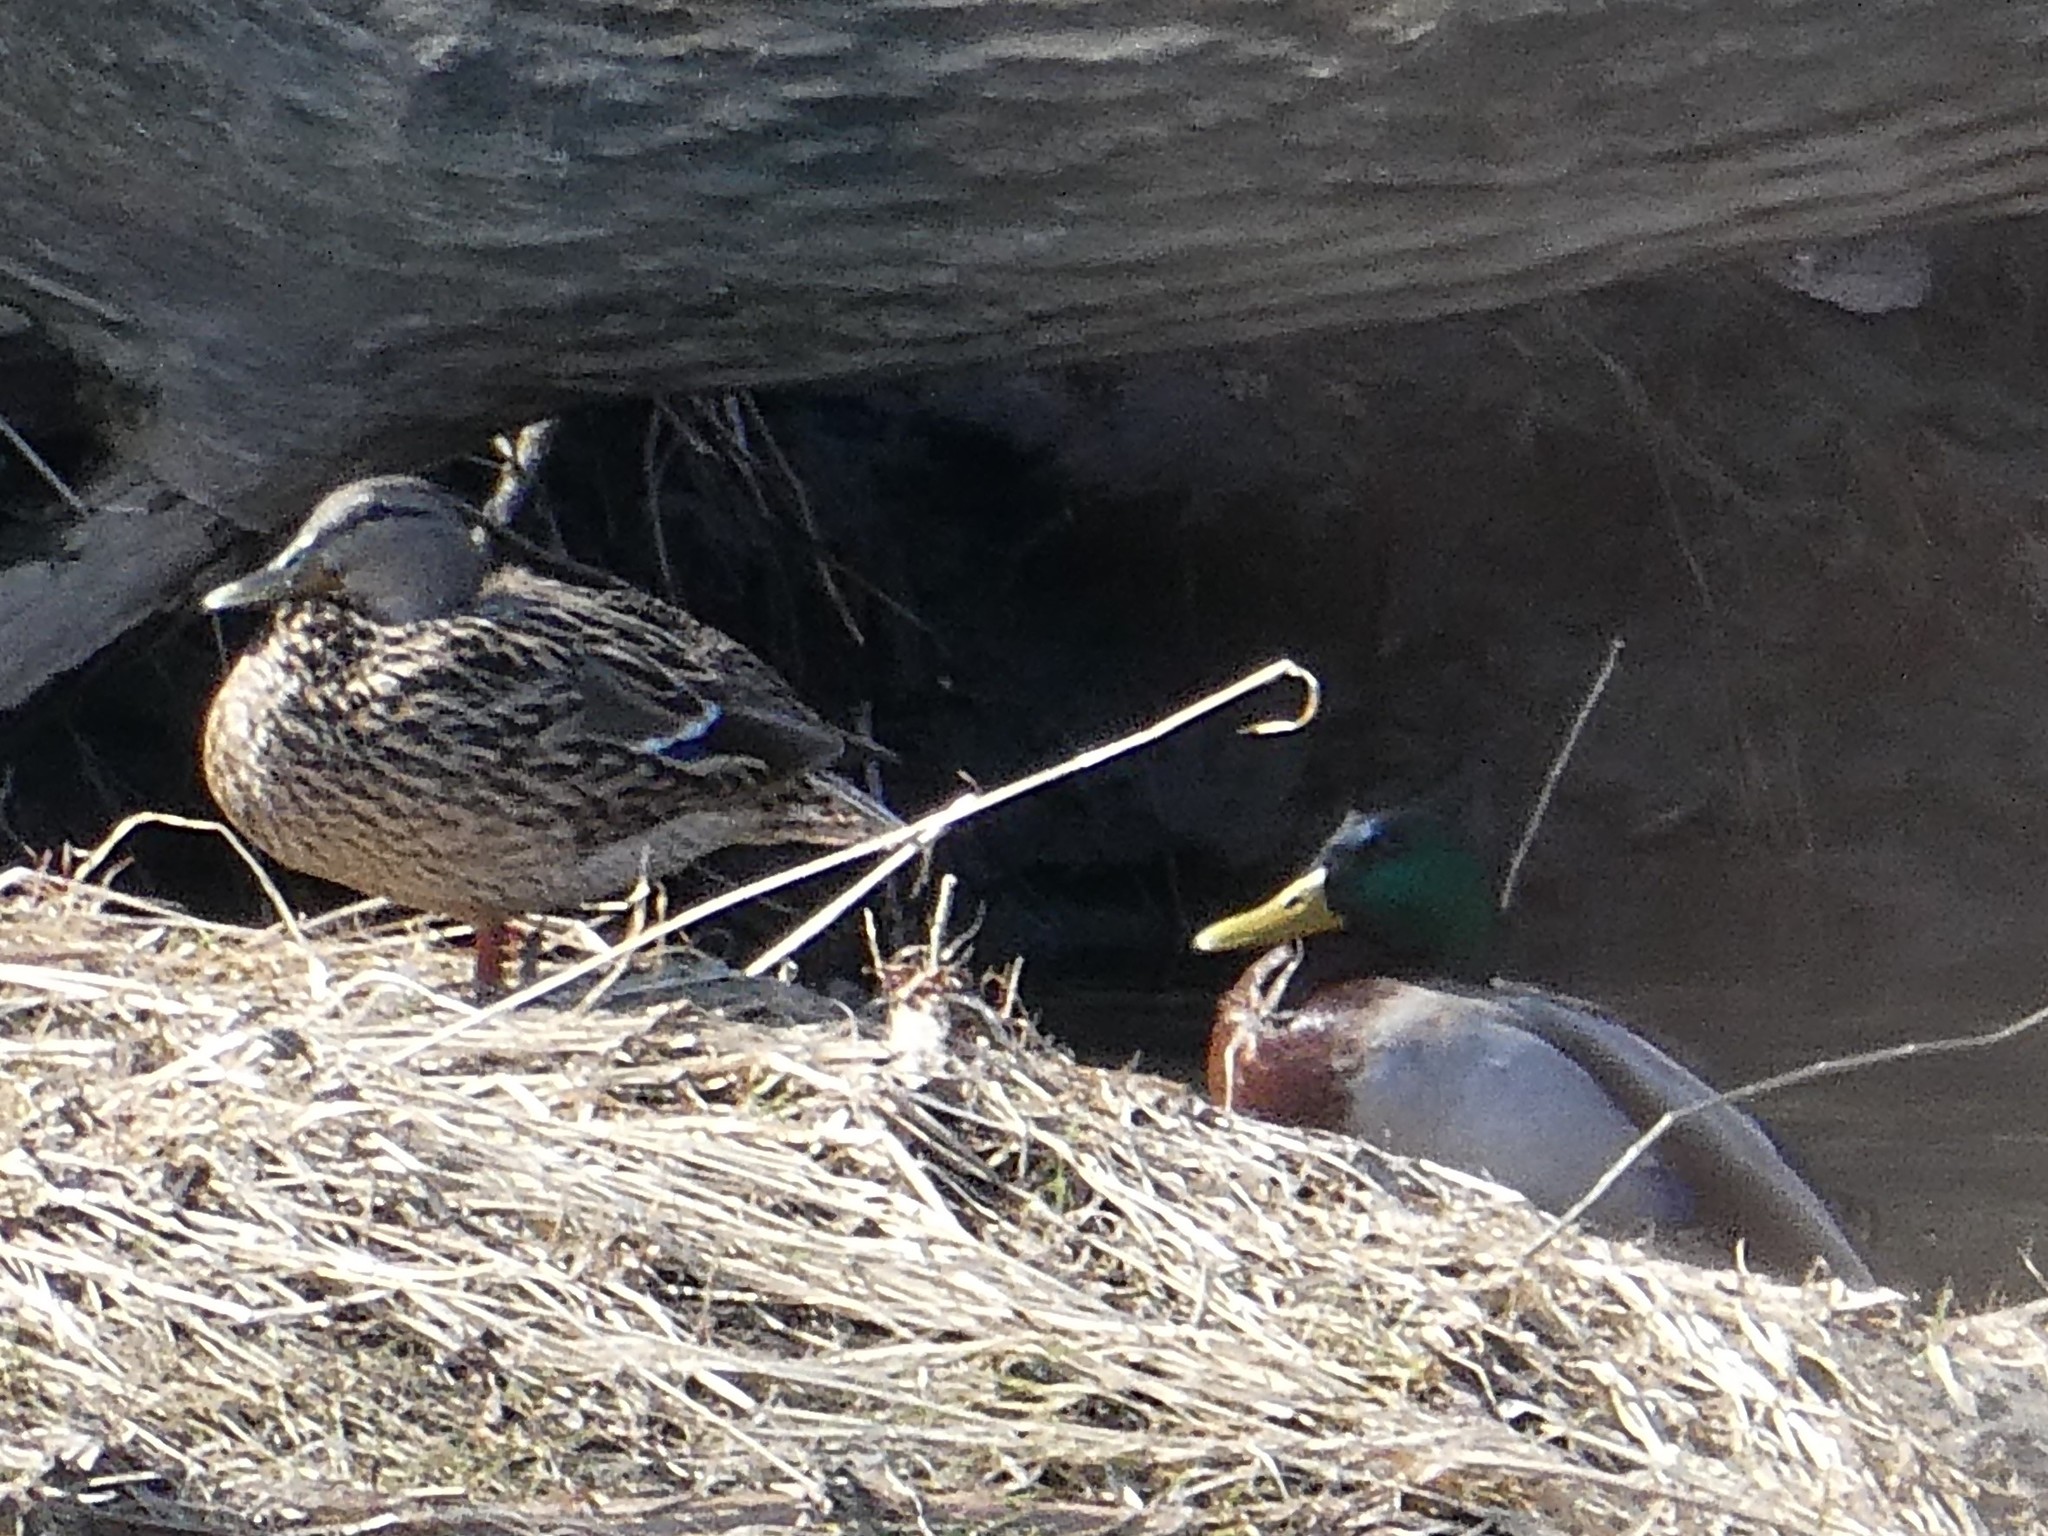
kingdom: Animalia
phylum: Chordata
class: Aves
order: Anseriformes
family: Anatidae
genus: Anas
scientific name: Anas platyrhynchos
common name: Mallard
